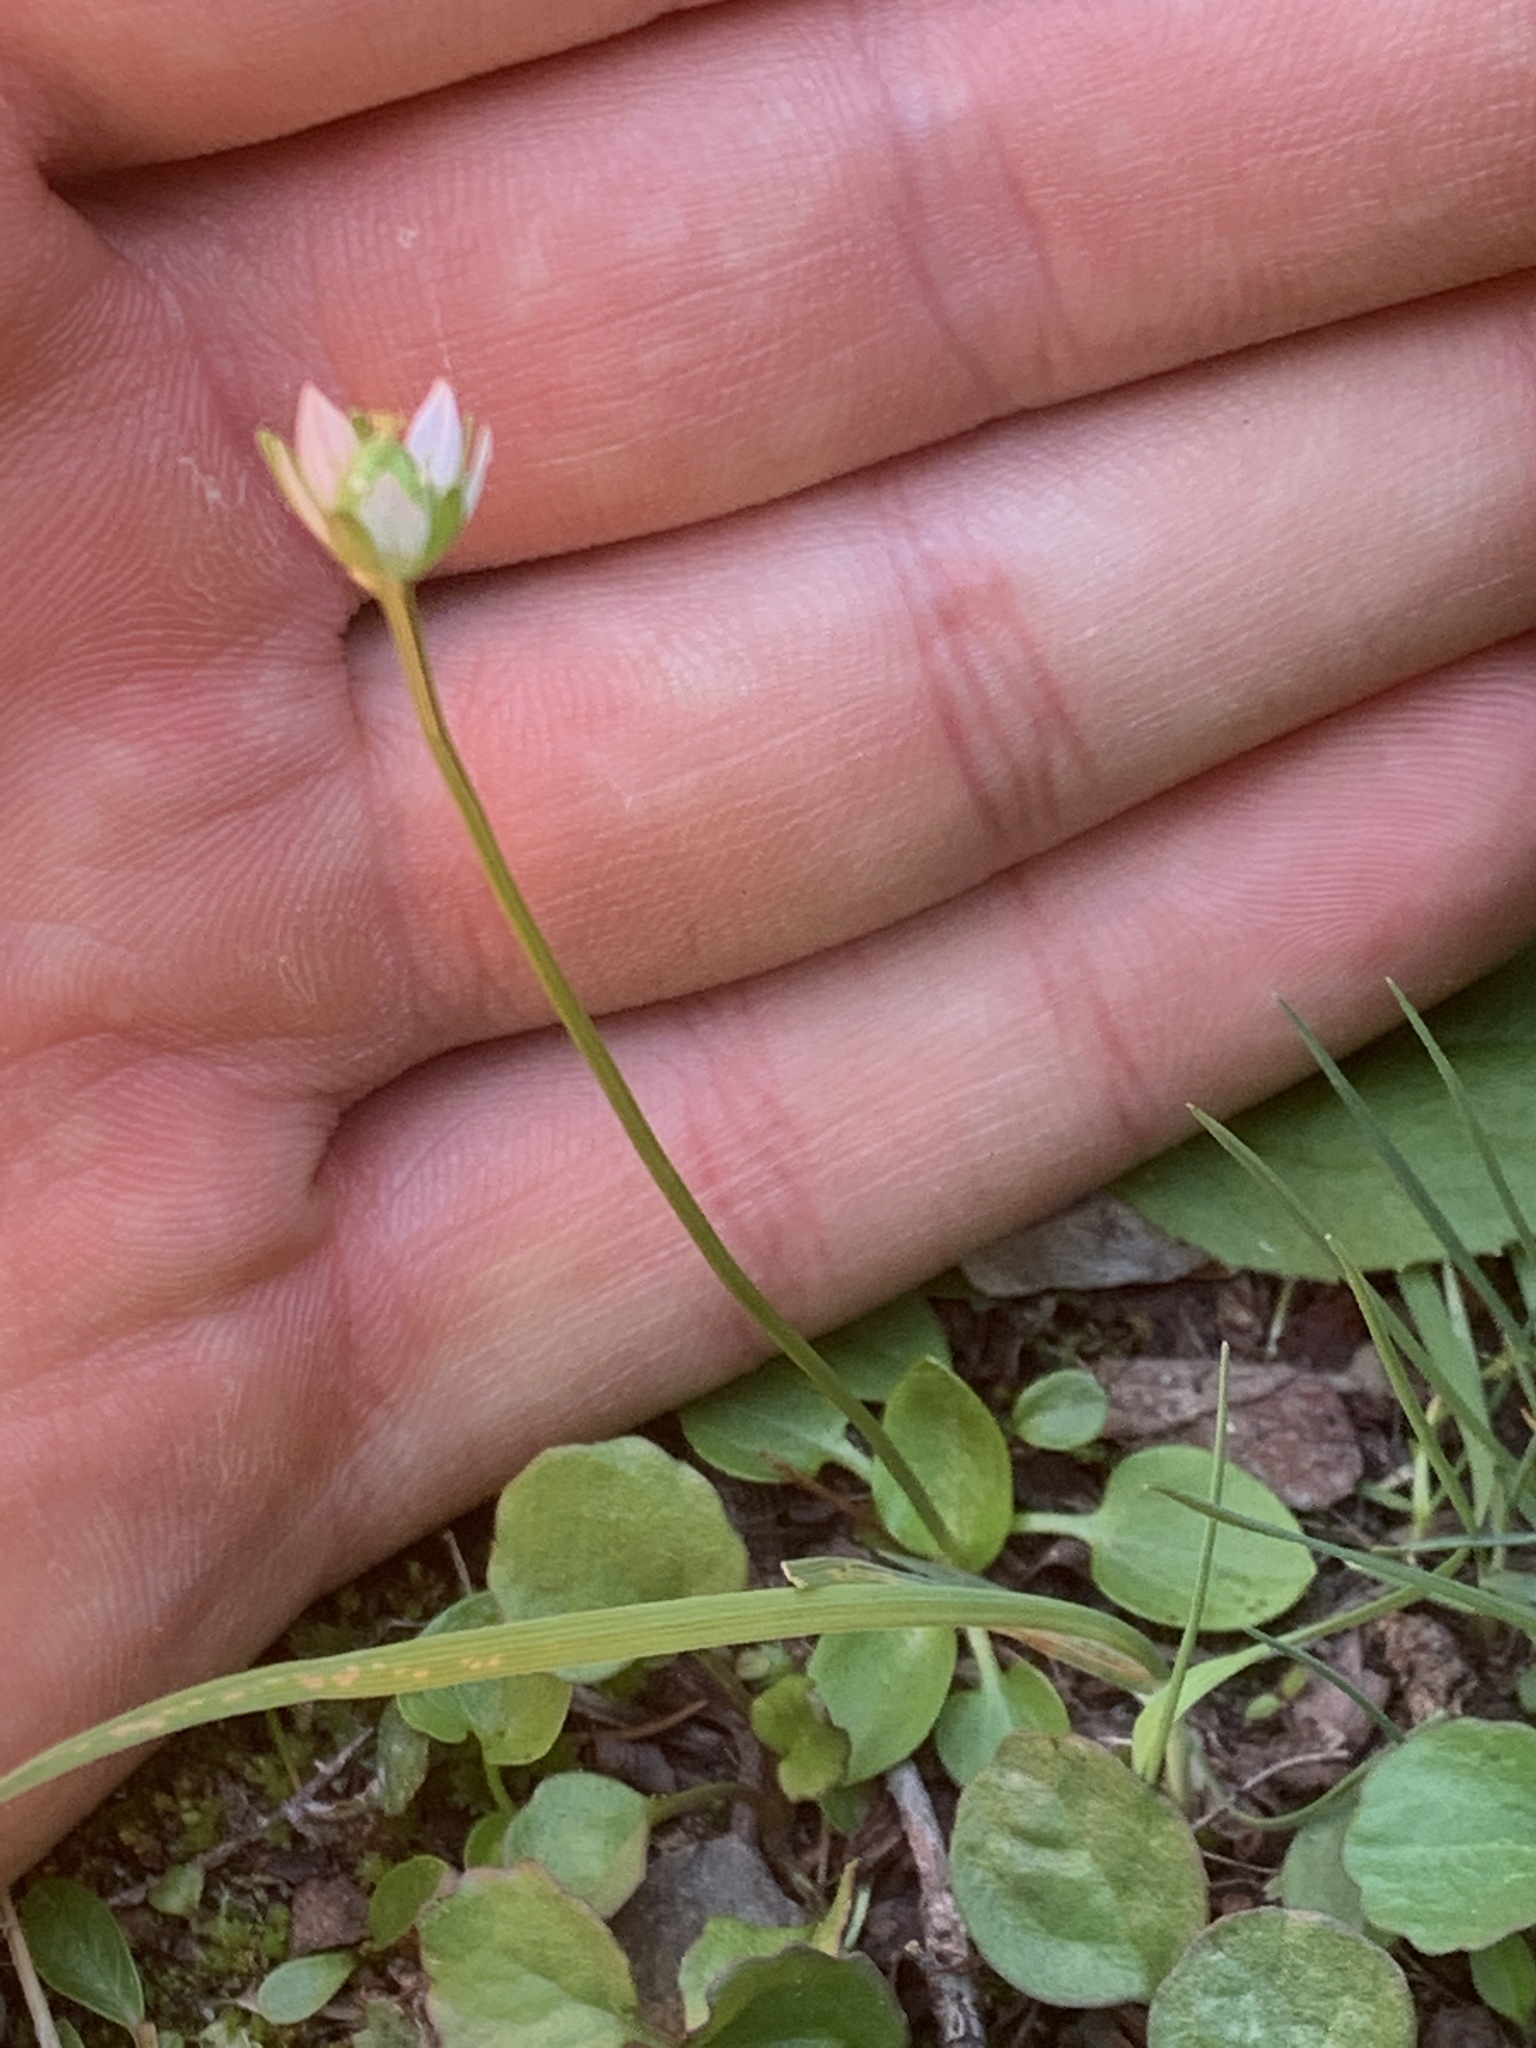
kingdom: Plantae
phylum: Tracheophyta
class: Magnoliopsida
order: Celastrales
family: Parnassiaceae
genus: Parnassia
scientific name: Parnassia kotzebuei
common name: Kotzebue's grass-of-parnassus
